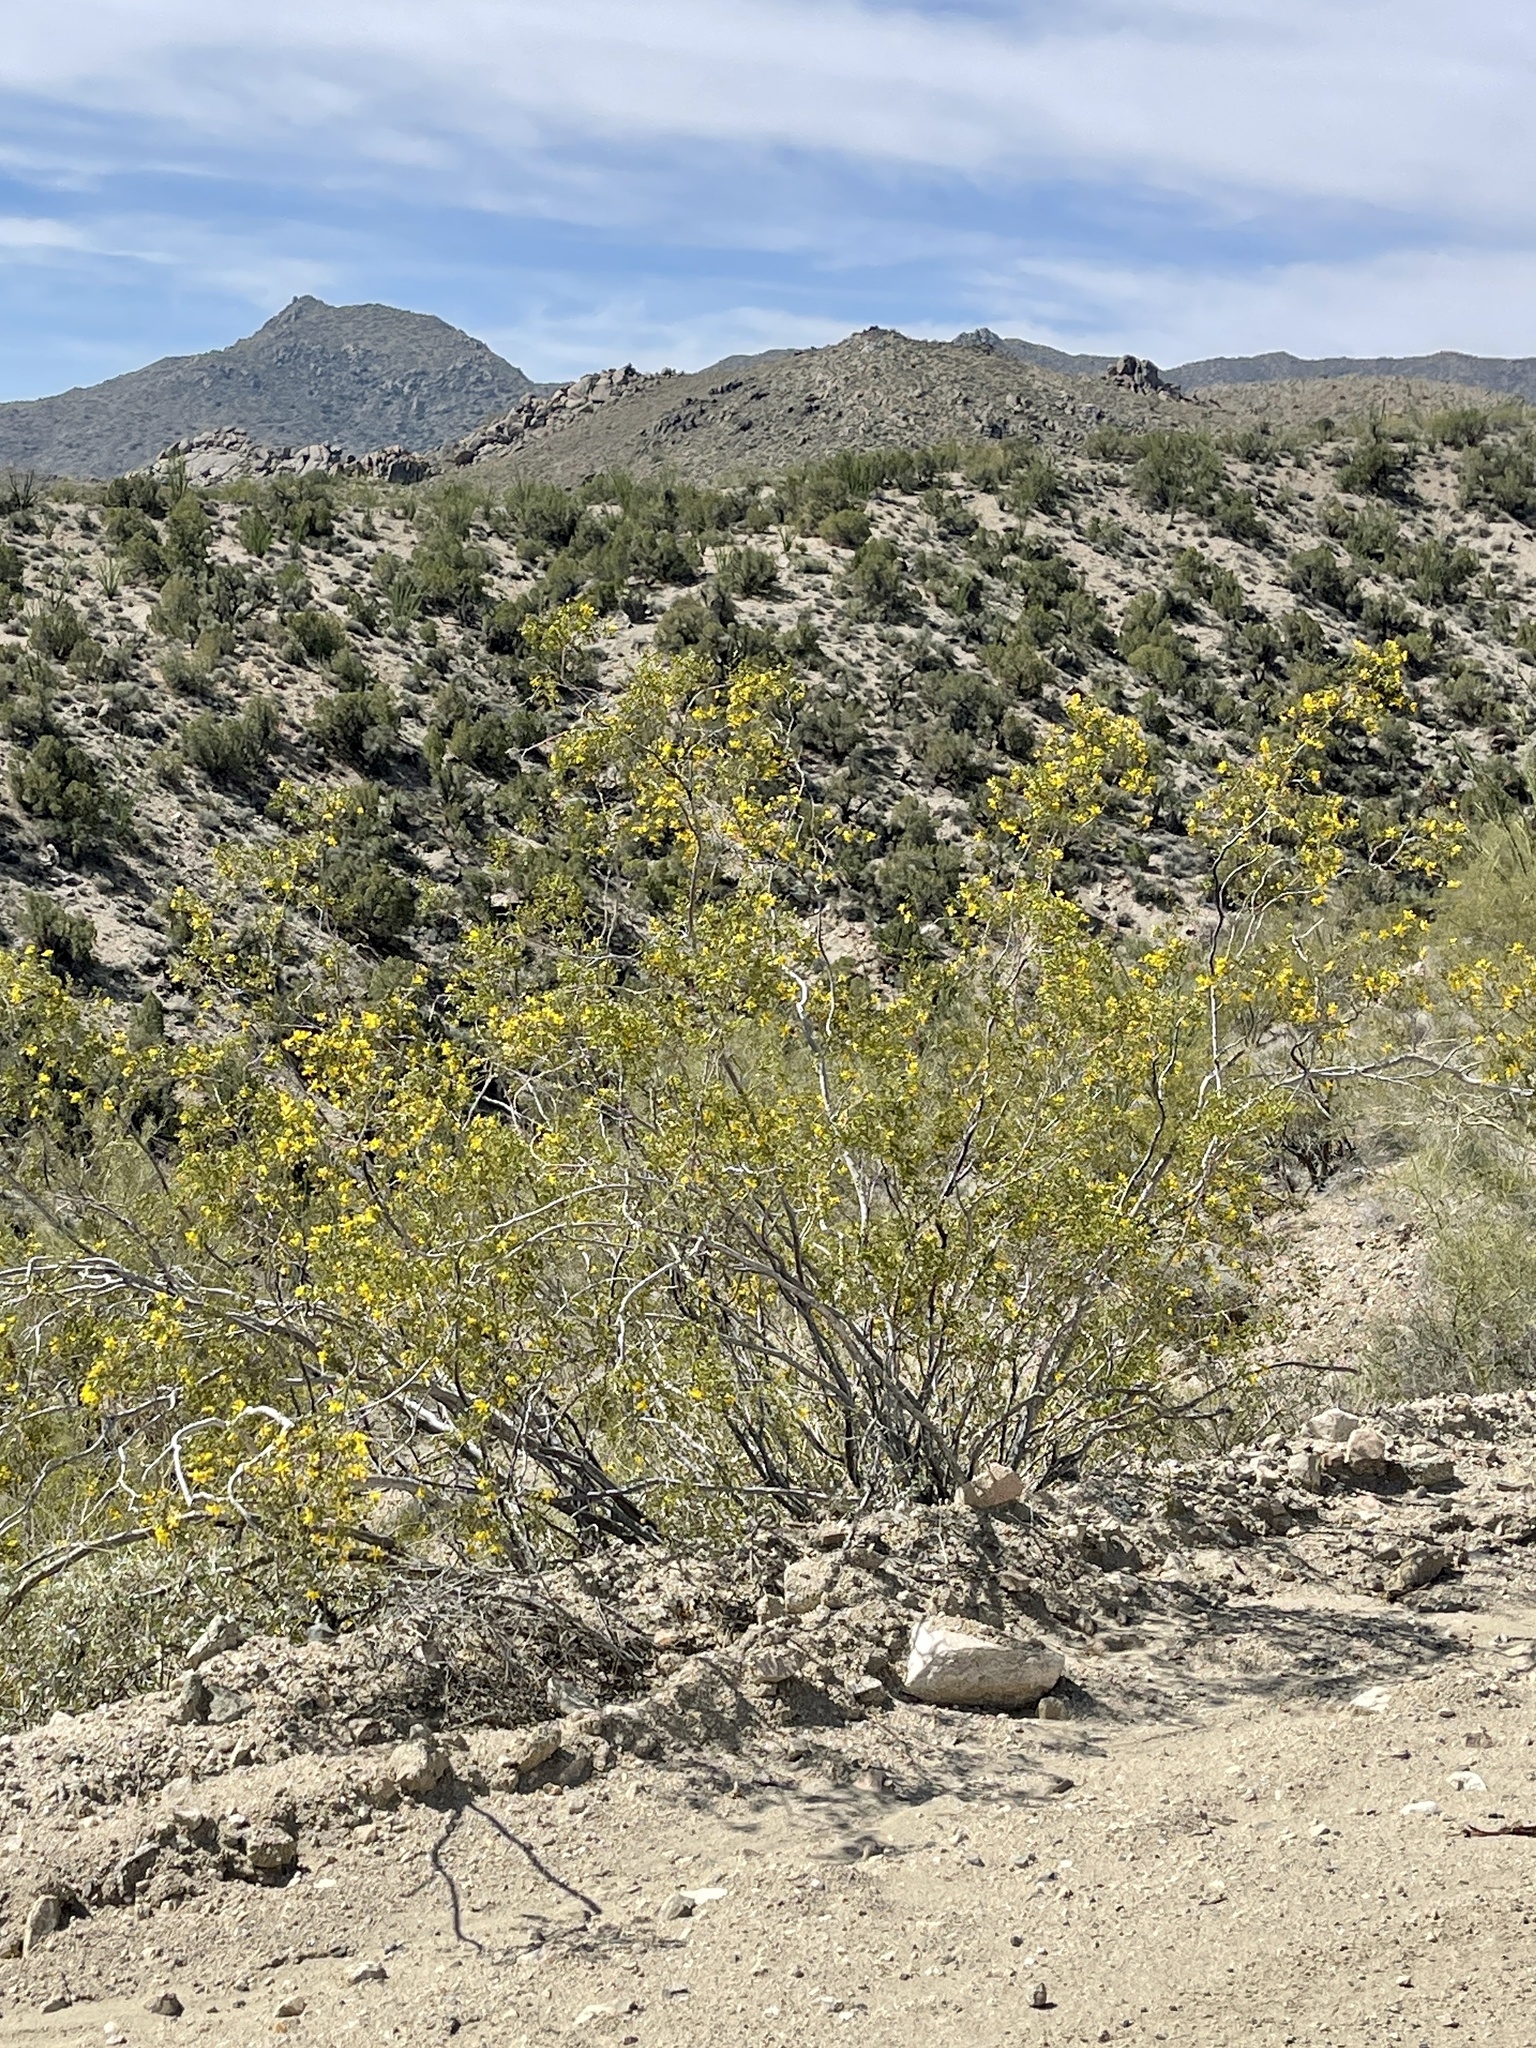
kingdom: Plantae
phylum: Tracheophyta
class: Magnoliopsida
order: Zygophyllales
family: Zygophyllaceae
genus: Larrea
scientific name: Larrea tridentata
